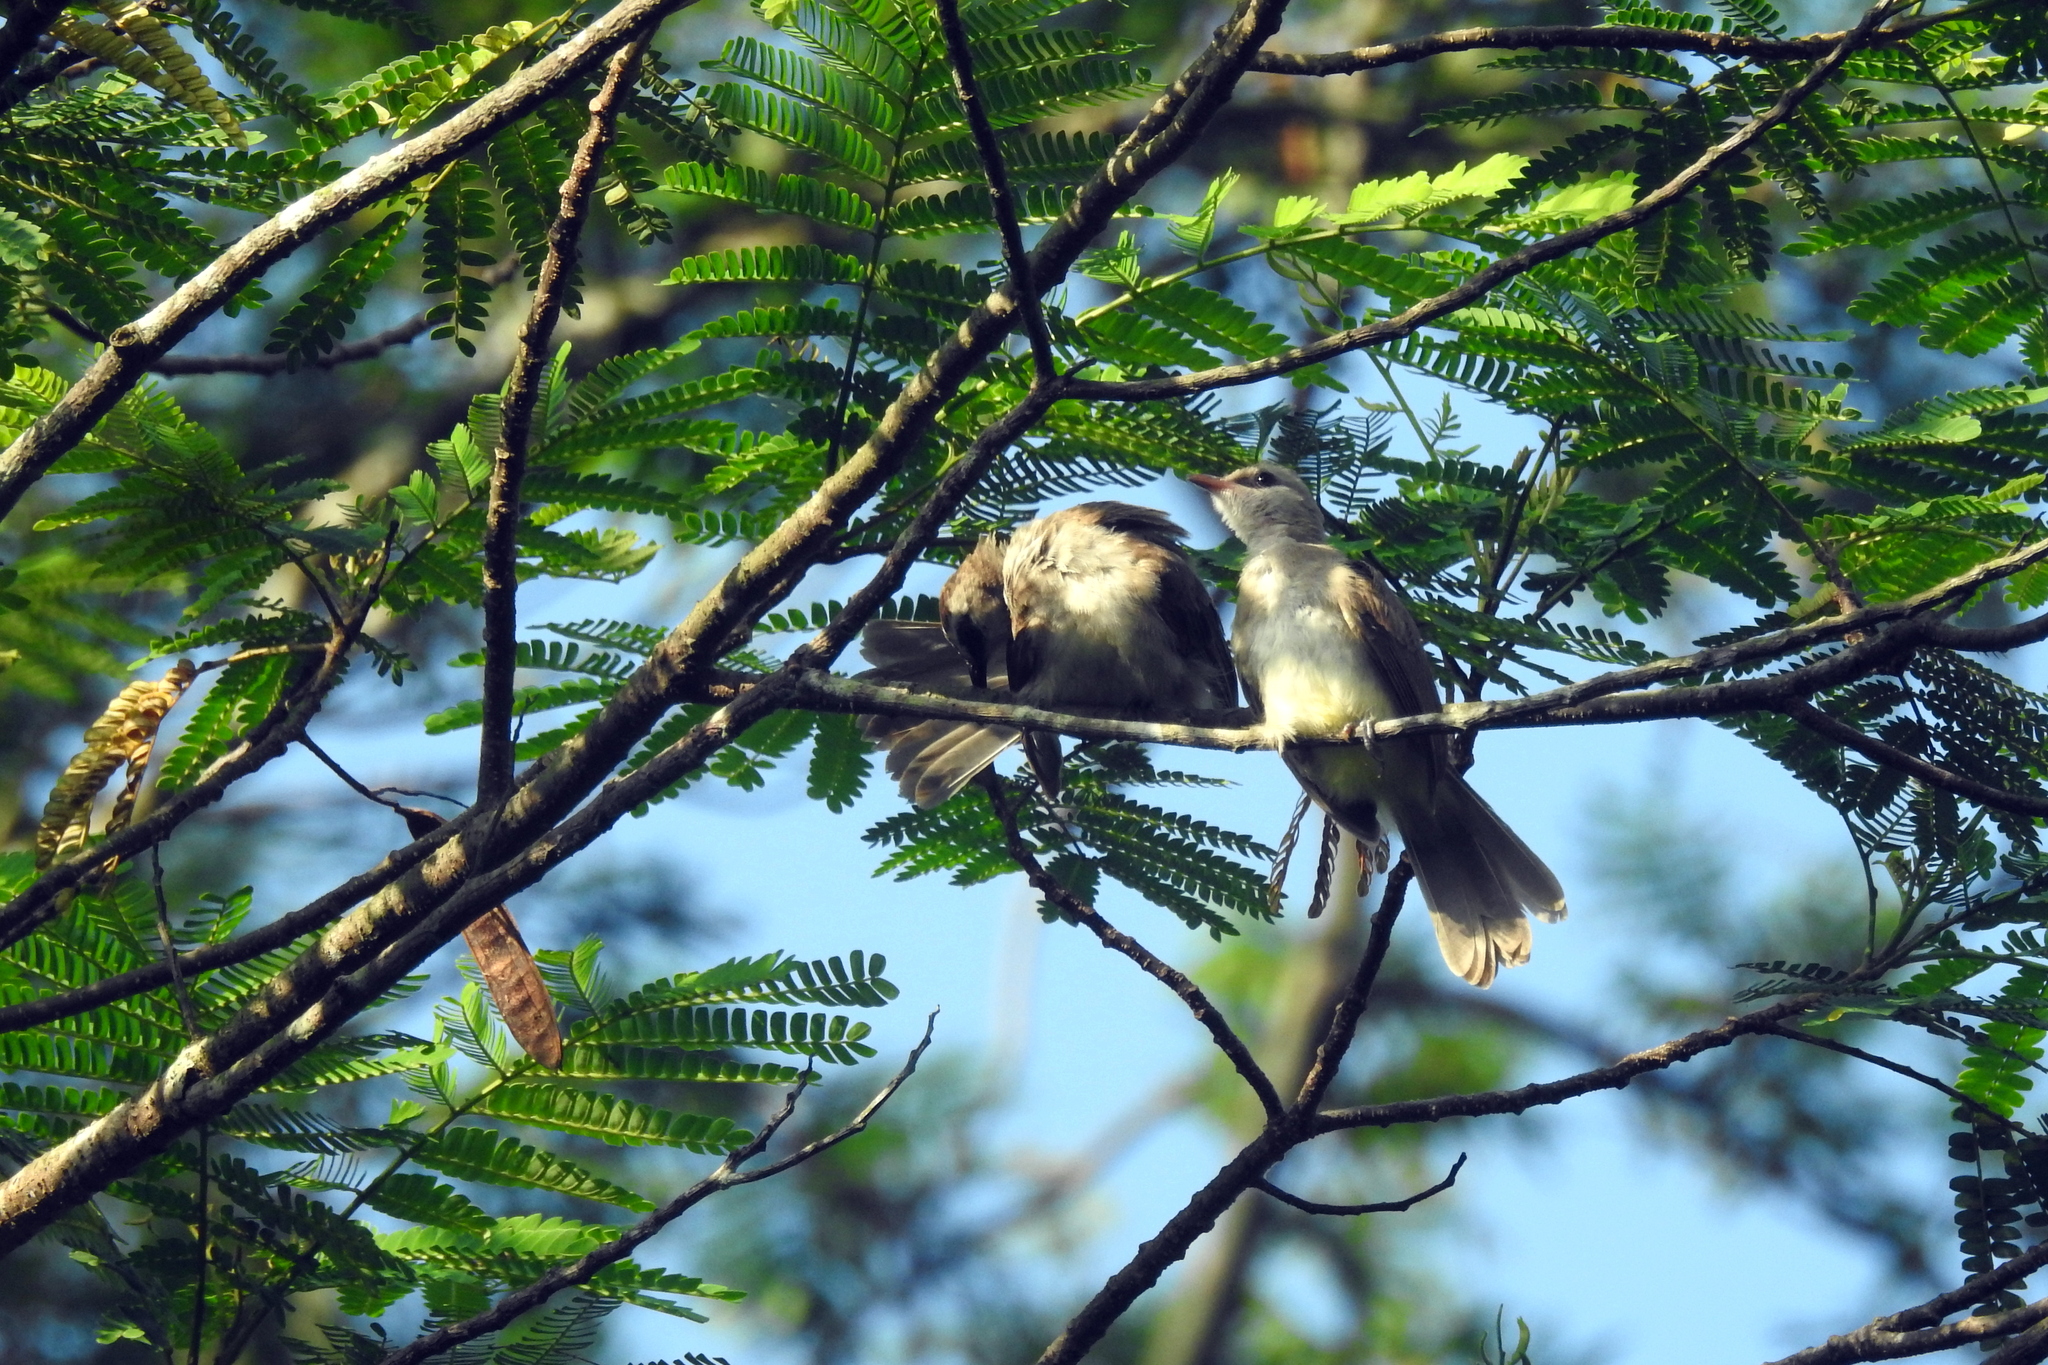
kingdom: Animalia
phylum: Chordata
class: Aves
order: Passeriformes
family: Pycnonotidae
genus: Pycnonotus
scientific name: Pycnonotus goiavier
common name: Yellow-vented bulbul
